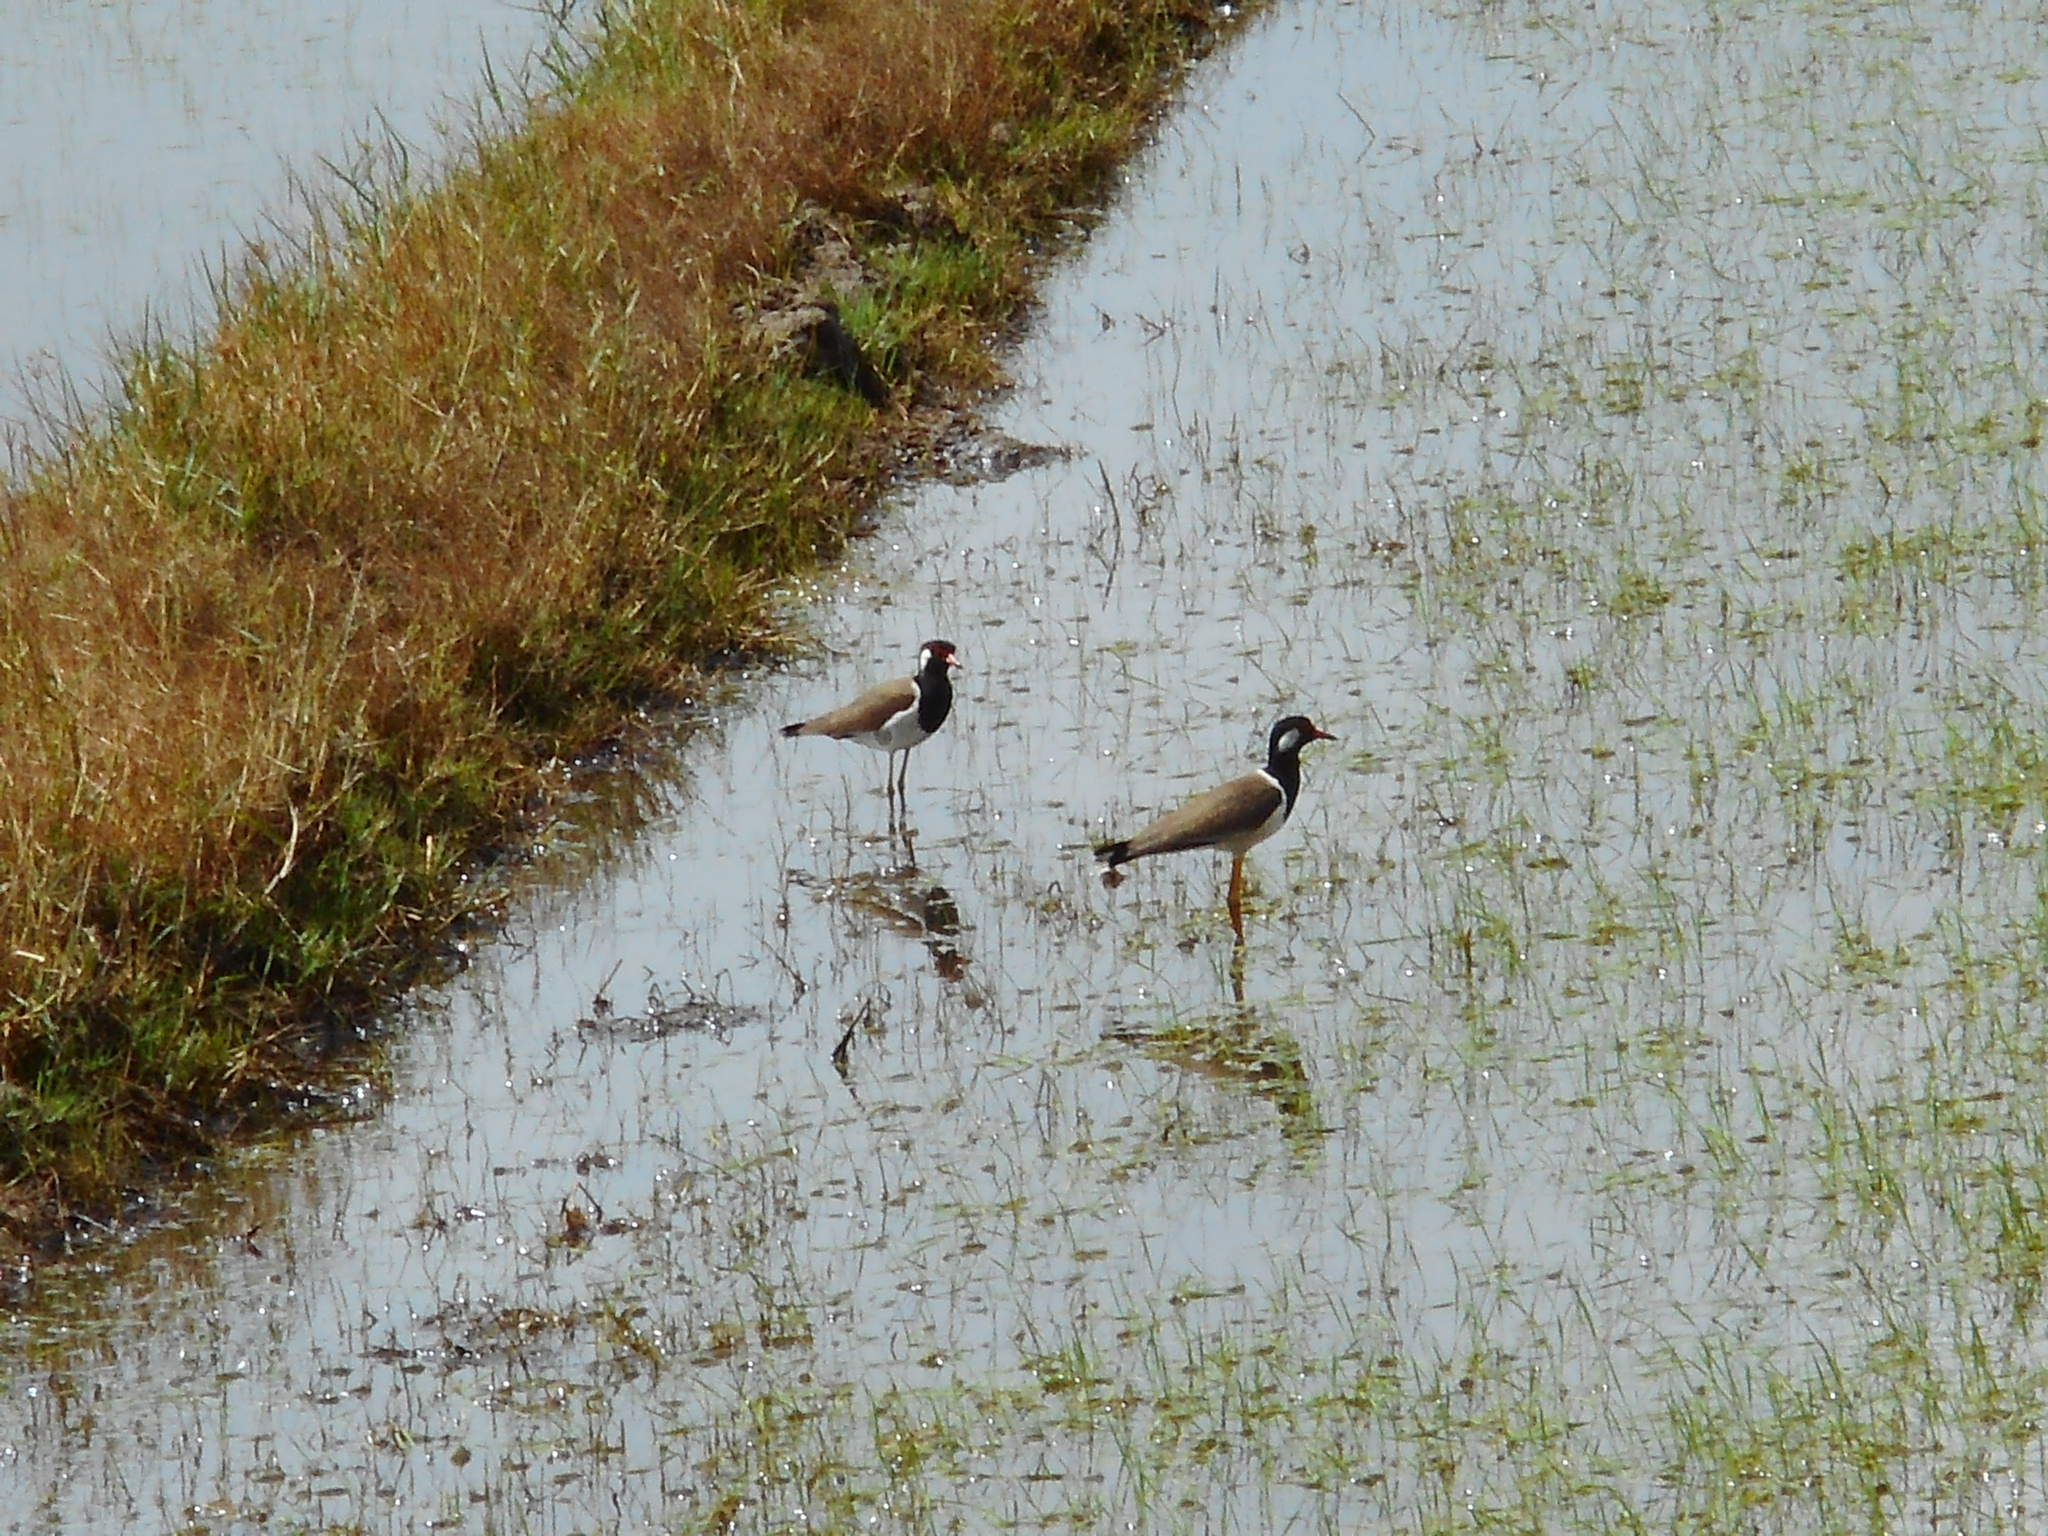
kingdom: Animalia
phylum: Chordata
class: Aves
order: Charadriiformes
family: Charadriidae
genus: Vanellus
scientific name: Vanellus indicus
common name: Red-wattled lapwing
